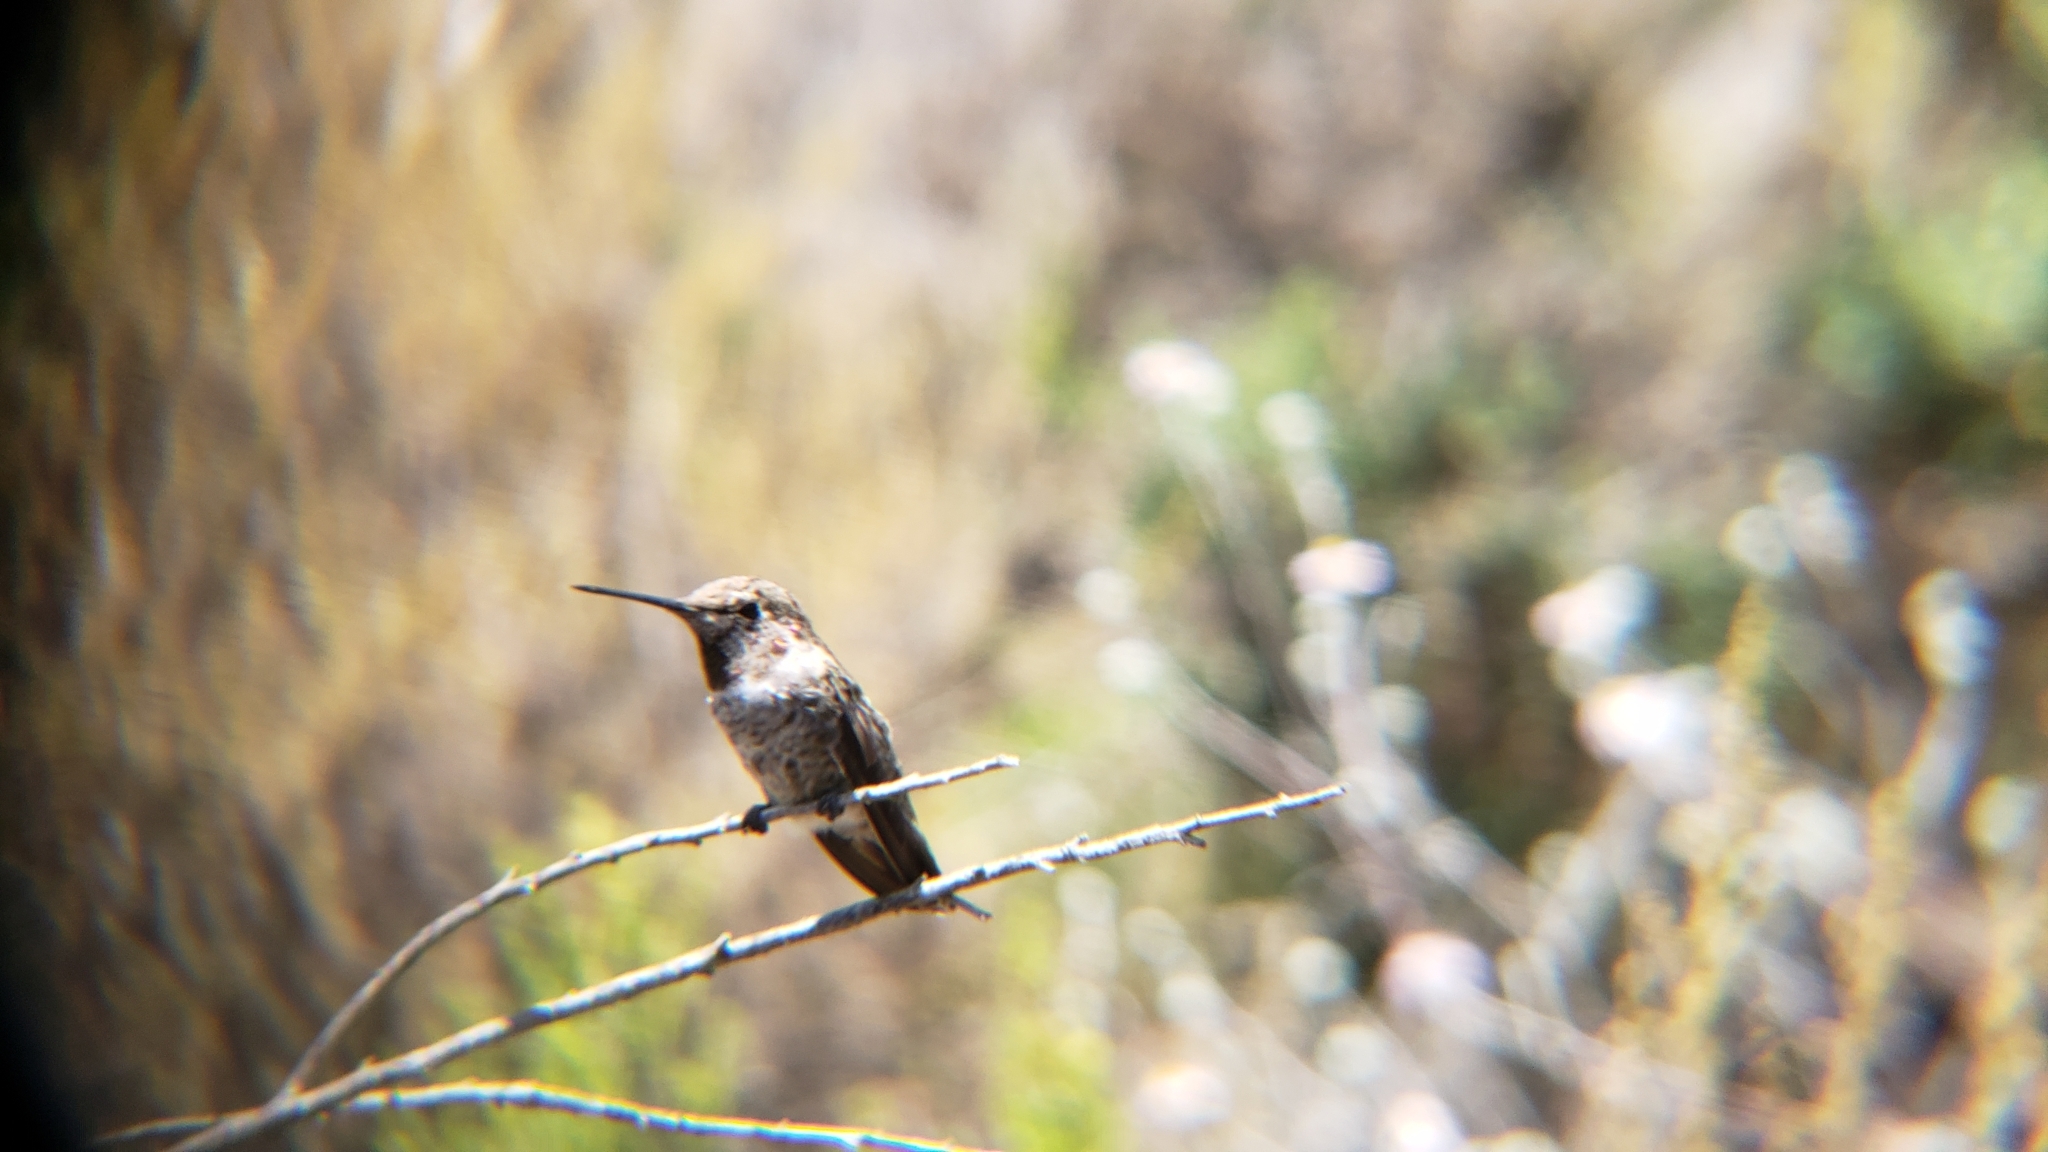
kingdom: Animalia
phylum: Chordata
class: Aves
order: Apodiformes
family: Trochilidae
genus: Calypte
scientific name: Calypte anna
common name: Anna's hummingbird
